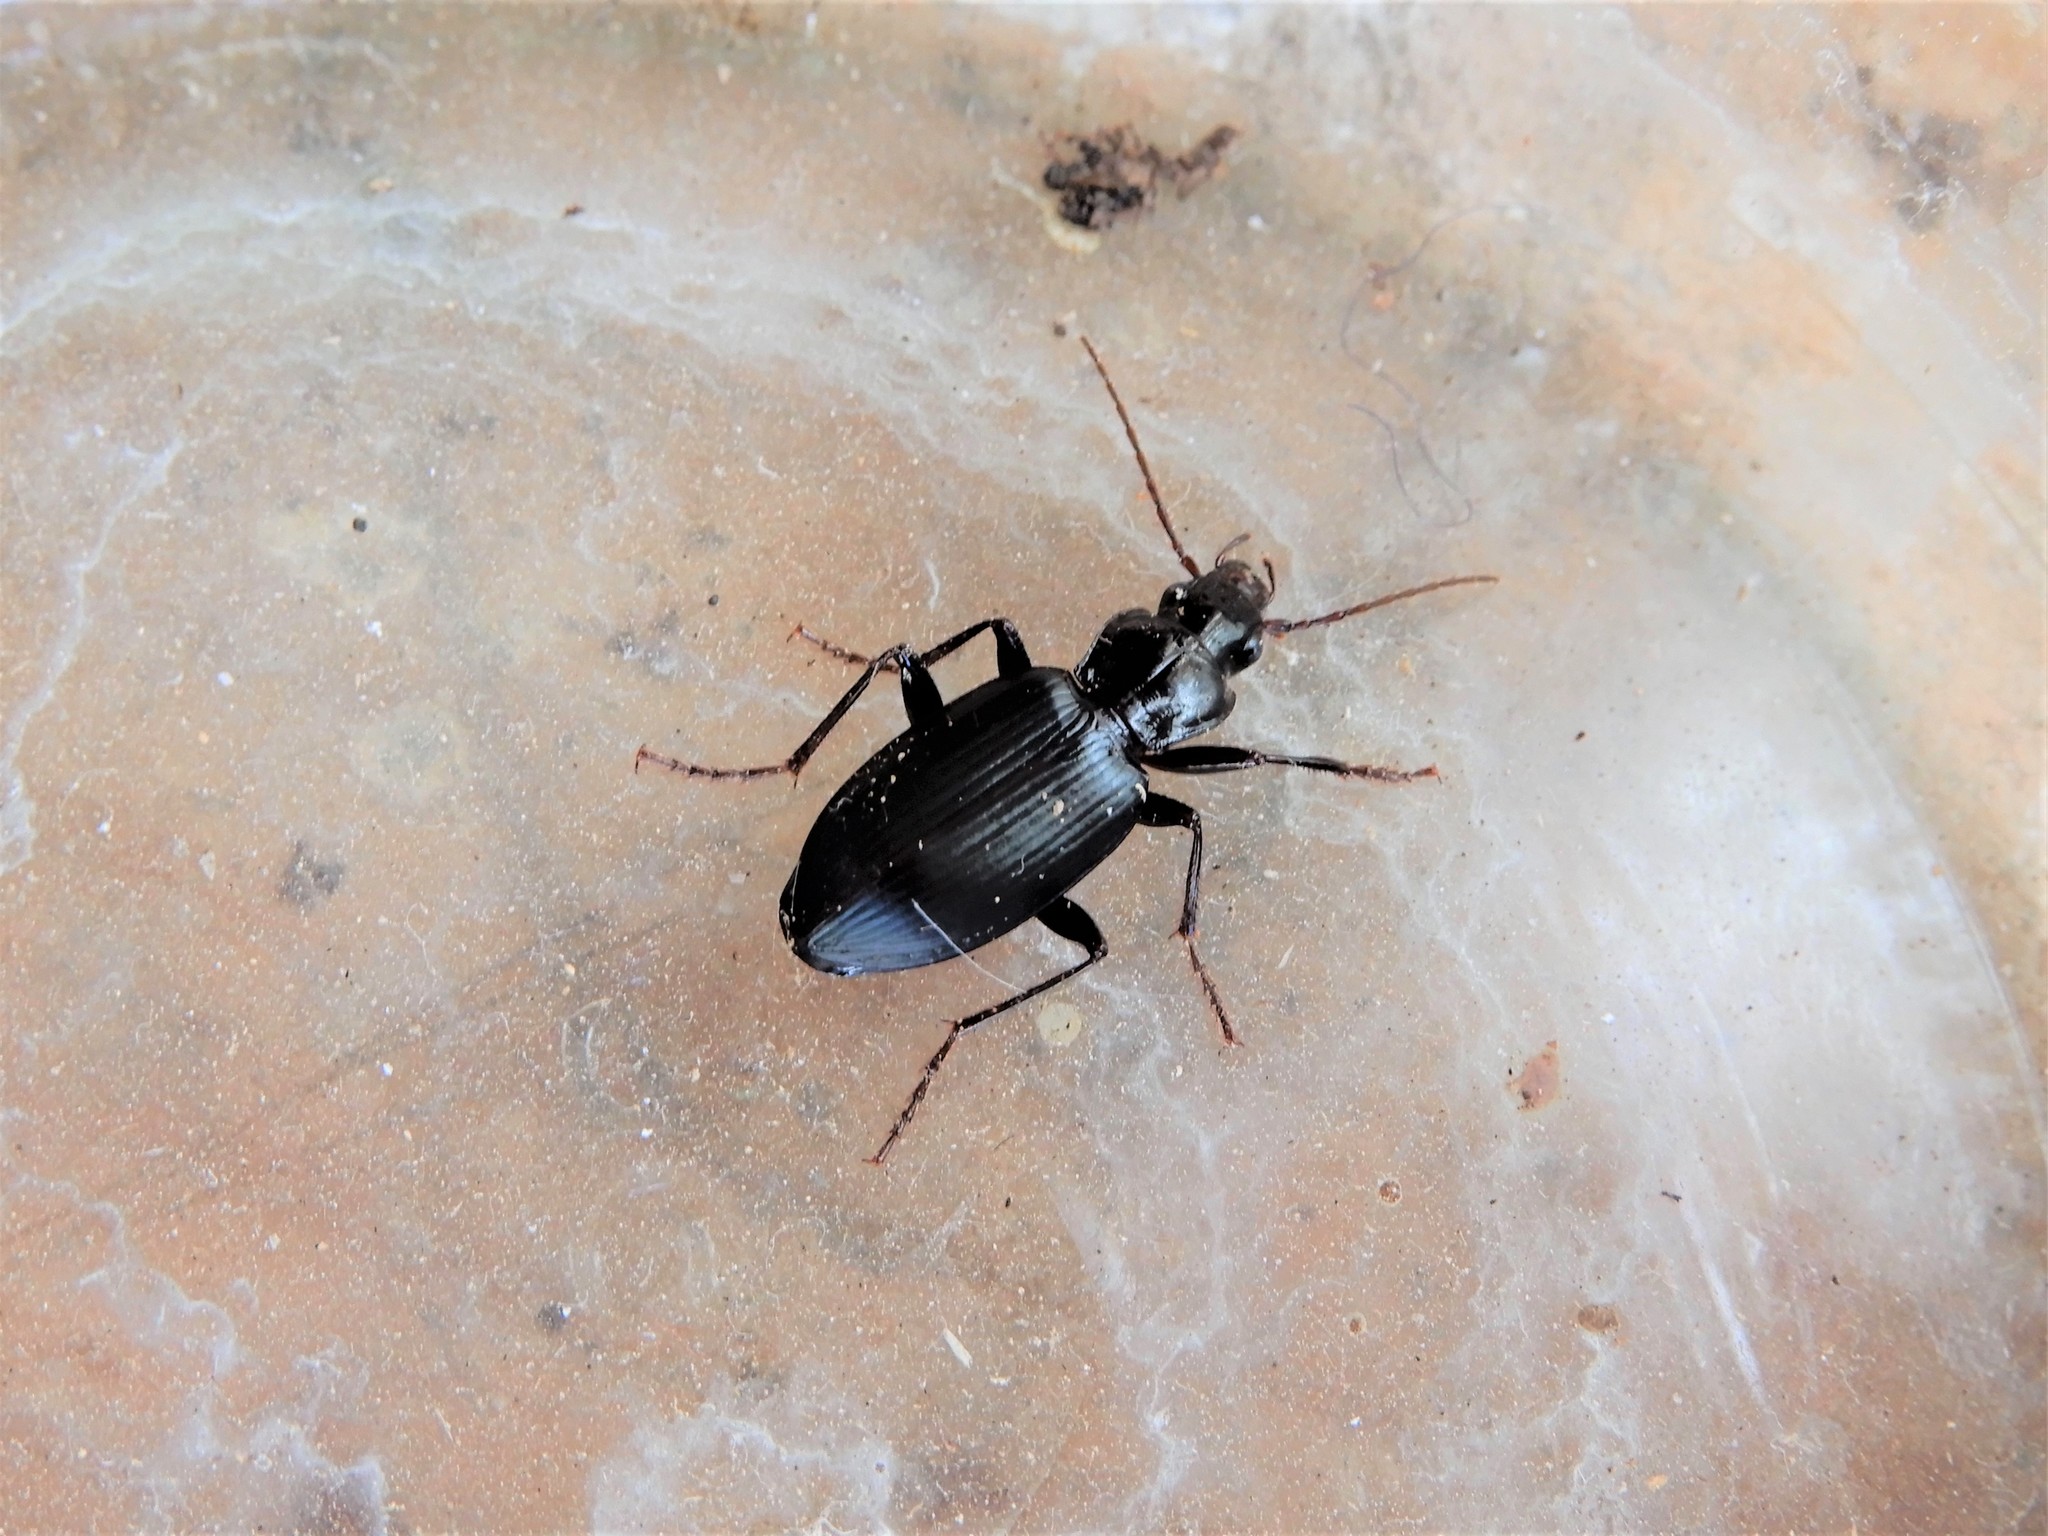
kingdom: Animalia
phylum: Arthropoda
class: Insecta
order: Coleoptera
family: Carabidae
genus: Laemostenus
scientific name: Laemostenus complanatus
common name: Cosmopolitan ground beetle
